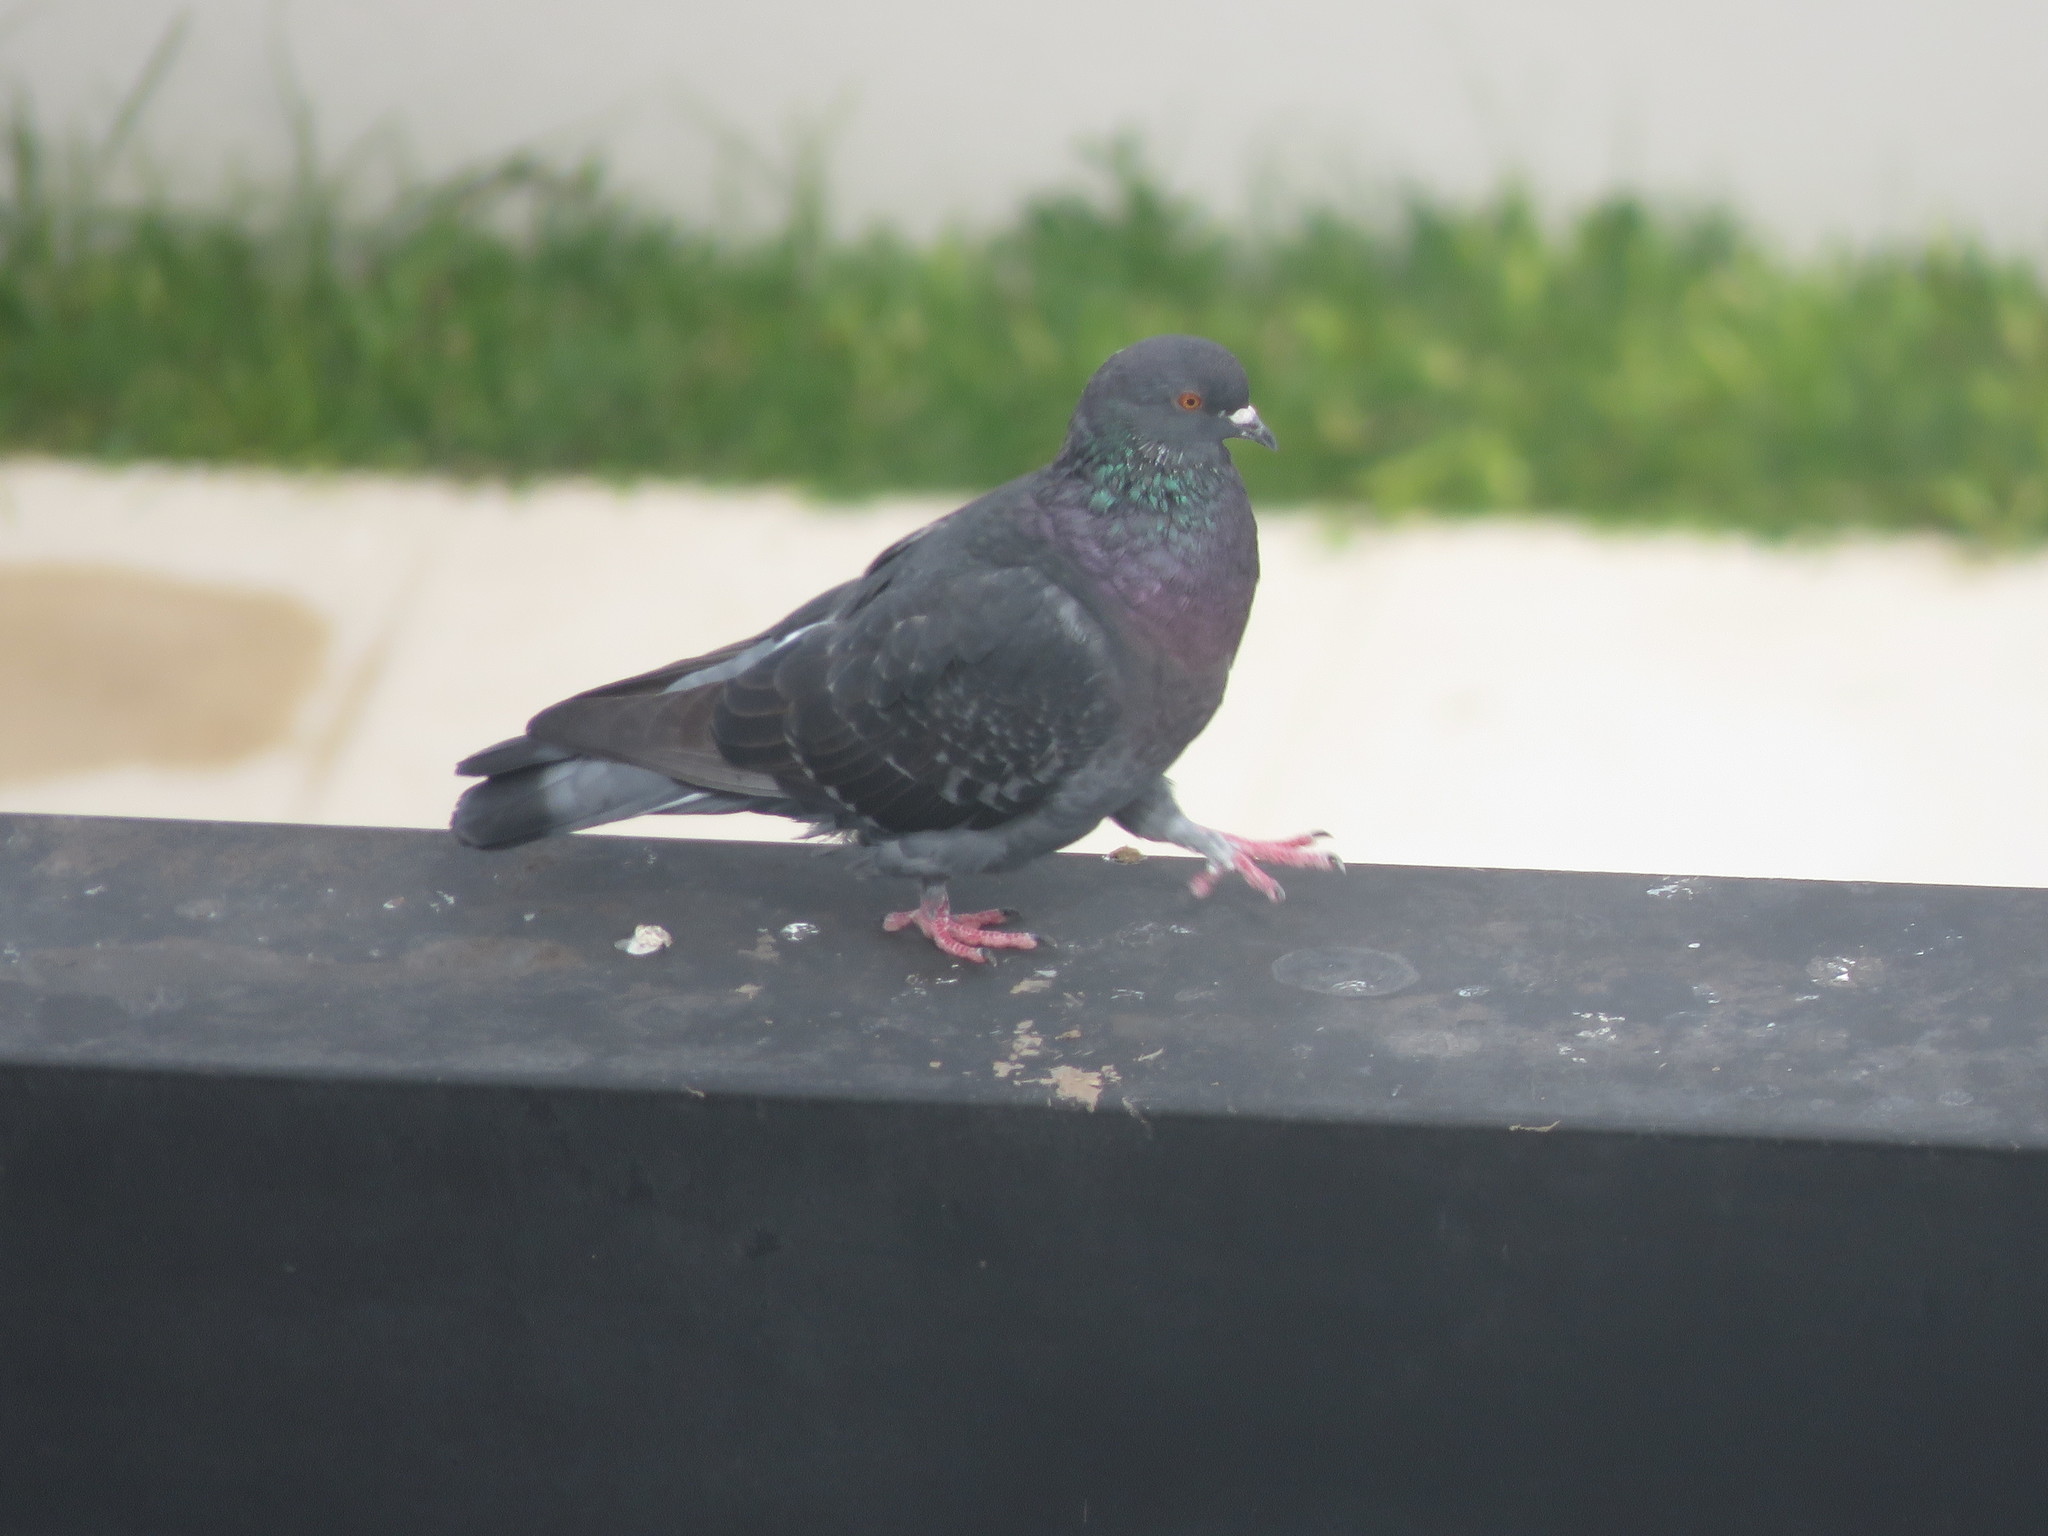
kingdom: Animalia
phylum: Chordata
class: Aves
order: Columbiformes
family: Columbidae
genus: Columba
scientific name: Columba livia
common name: Rock pigeon
